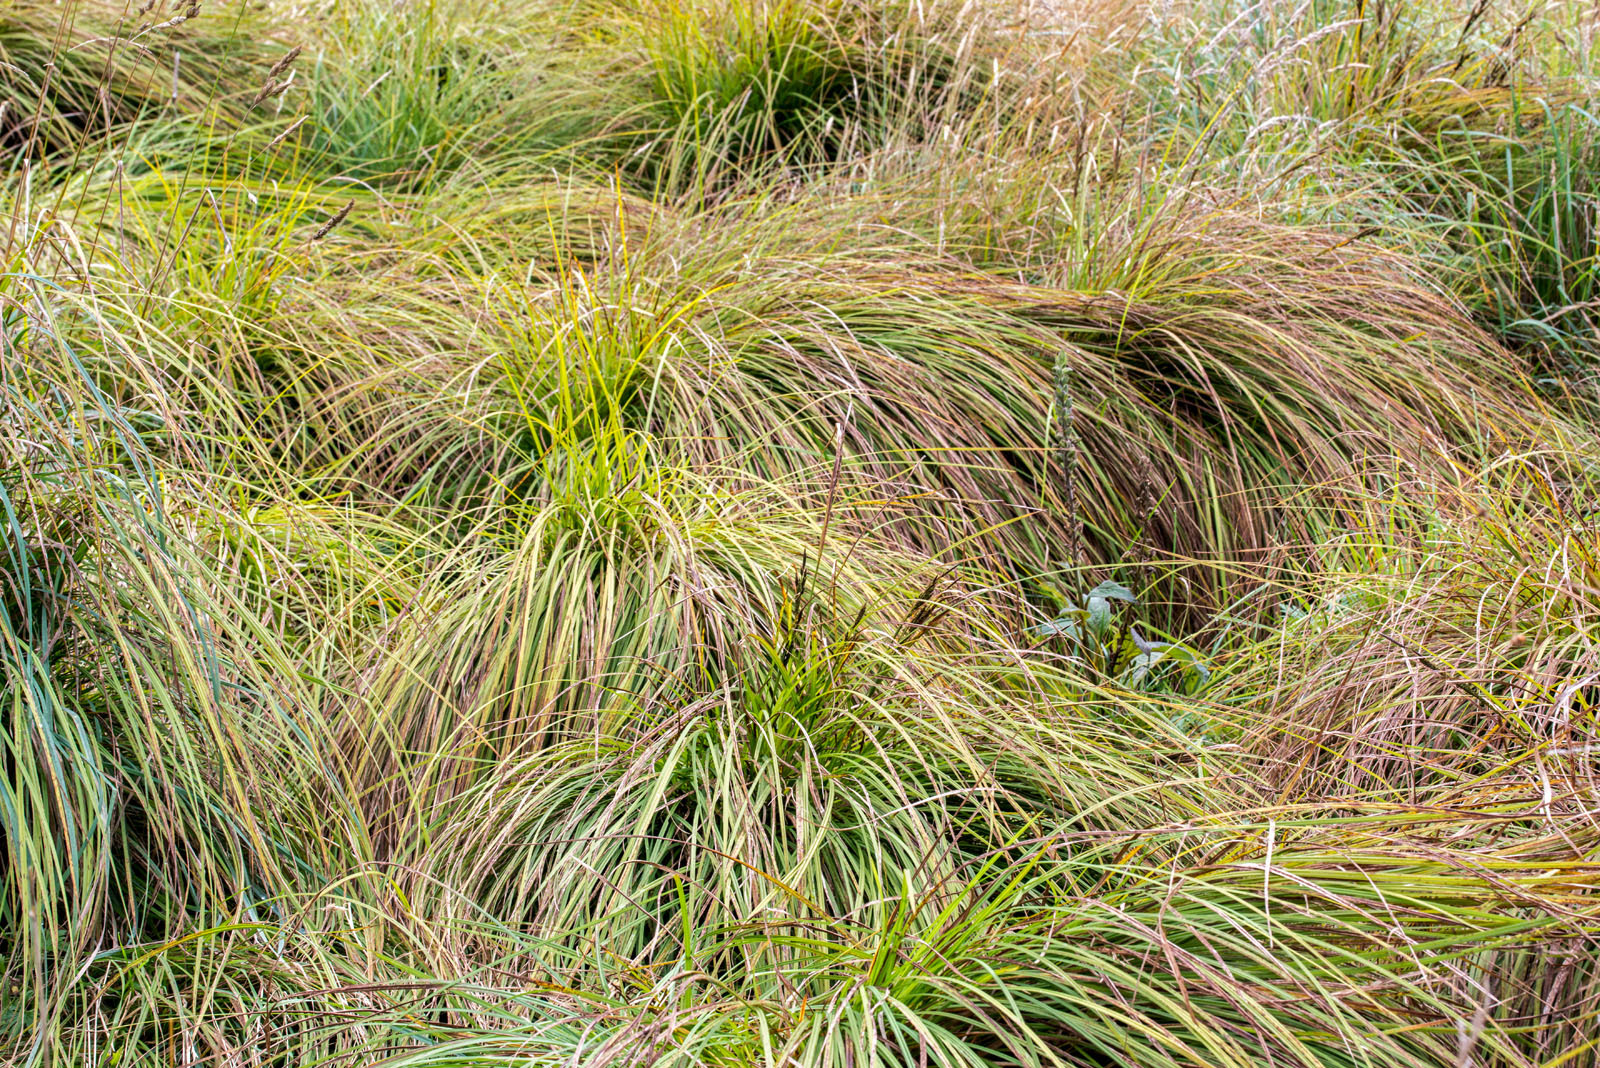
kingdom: Plantae
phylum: Tracheophyta
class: Liliopsida
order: Poales
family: Cyperaceae
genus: Carex
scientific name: Carex sinclairii
